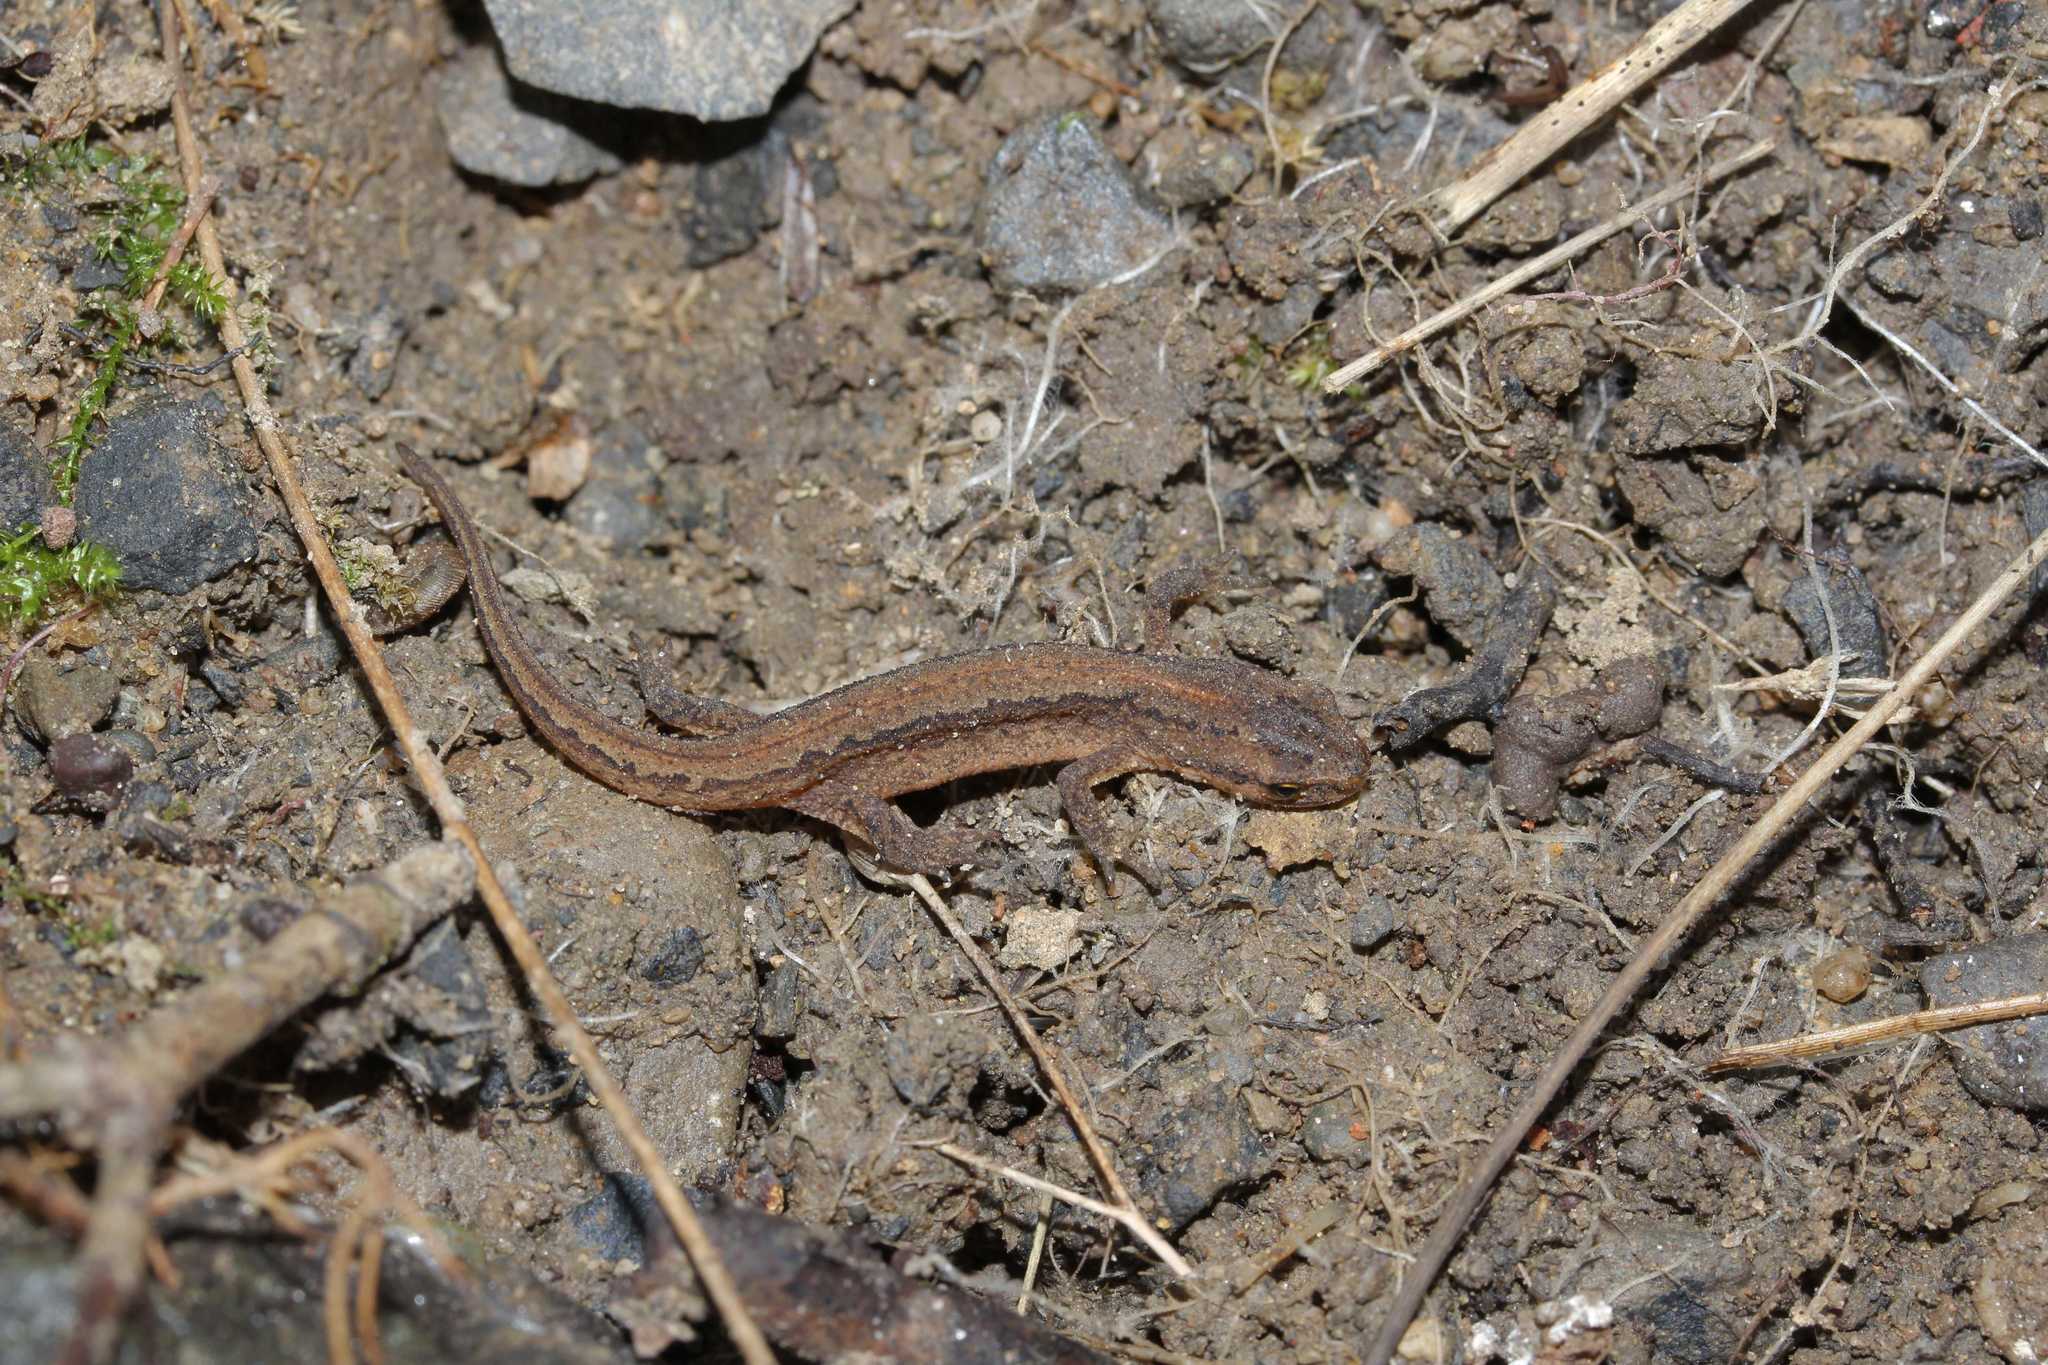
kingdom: Animalia
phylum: Chordata
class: Amphibia
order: Caudata
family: Salamandridae
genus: Lissotriton
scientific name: Lissotriton vulgaris
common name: Smooth newt
